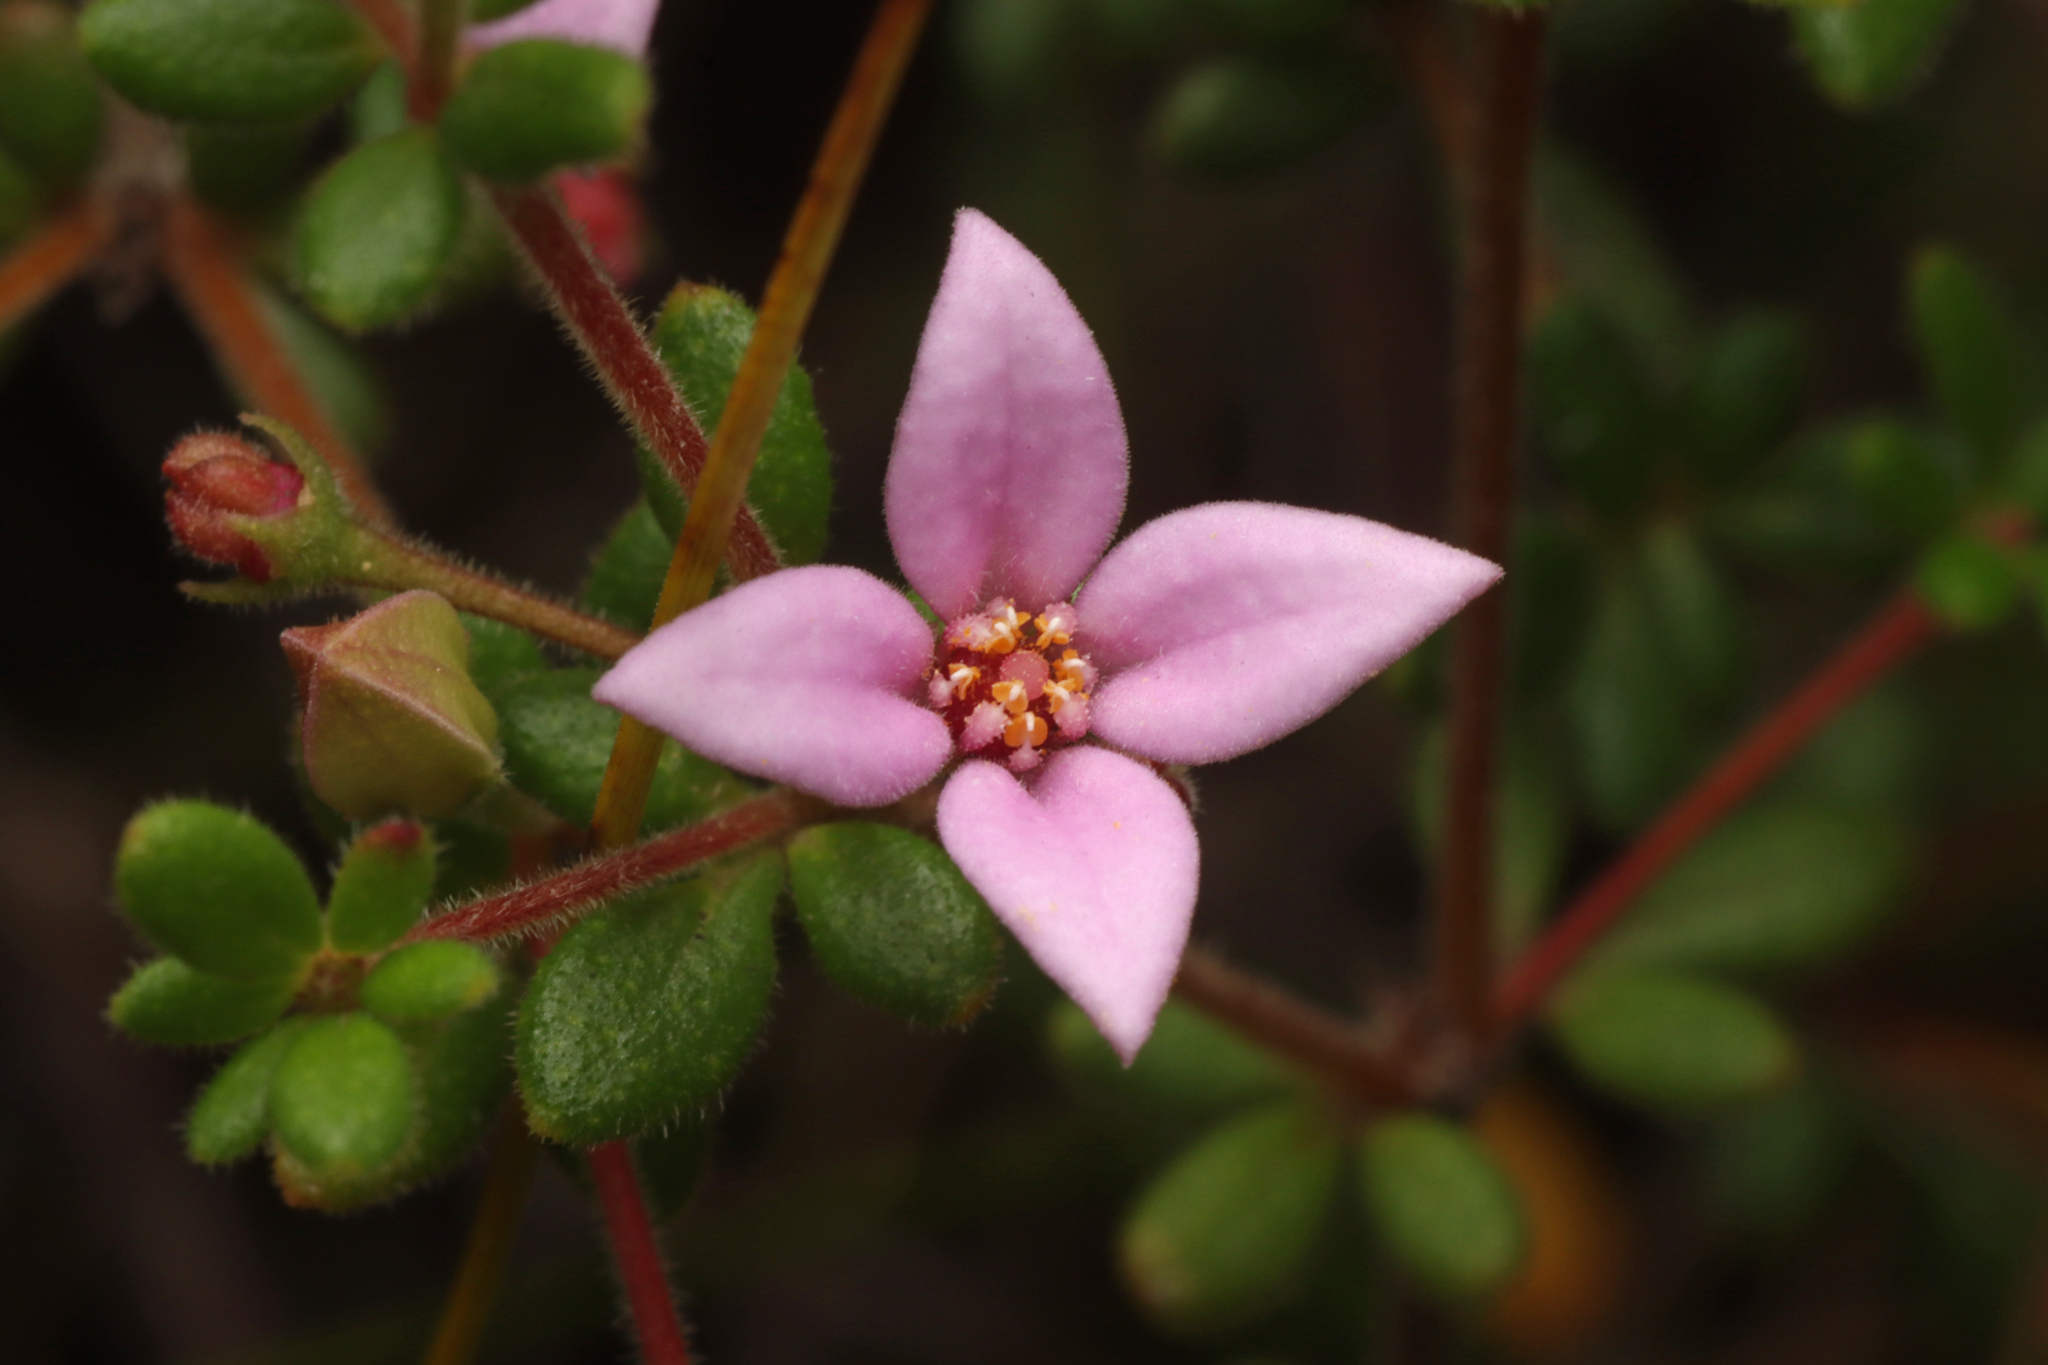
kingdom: Plantae
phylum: Tracheophyta
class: Magnoliopsida
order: Sapindales
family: Rutaceae
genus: Boronia
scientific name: Boronia edwardsii
